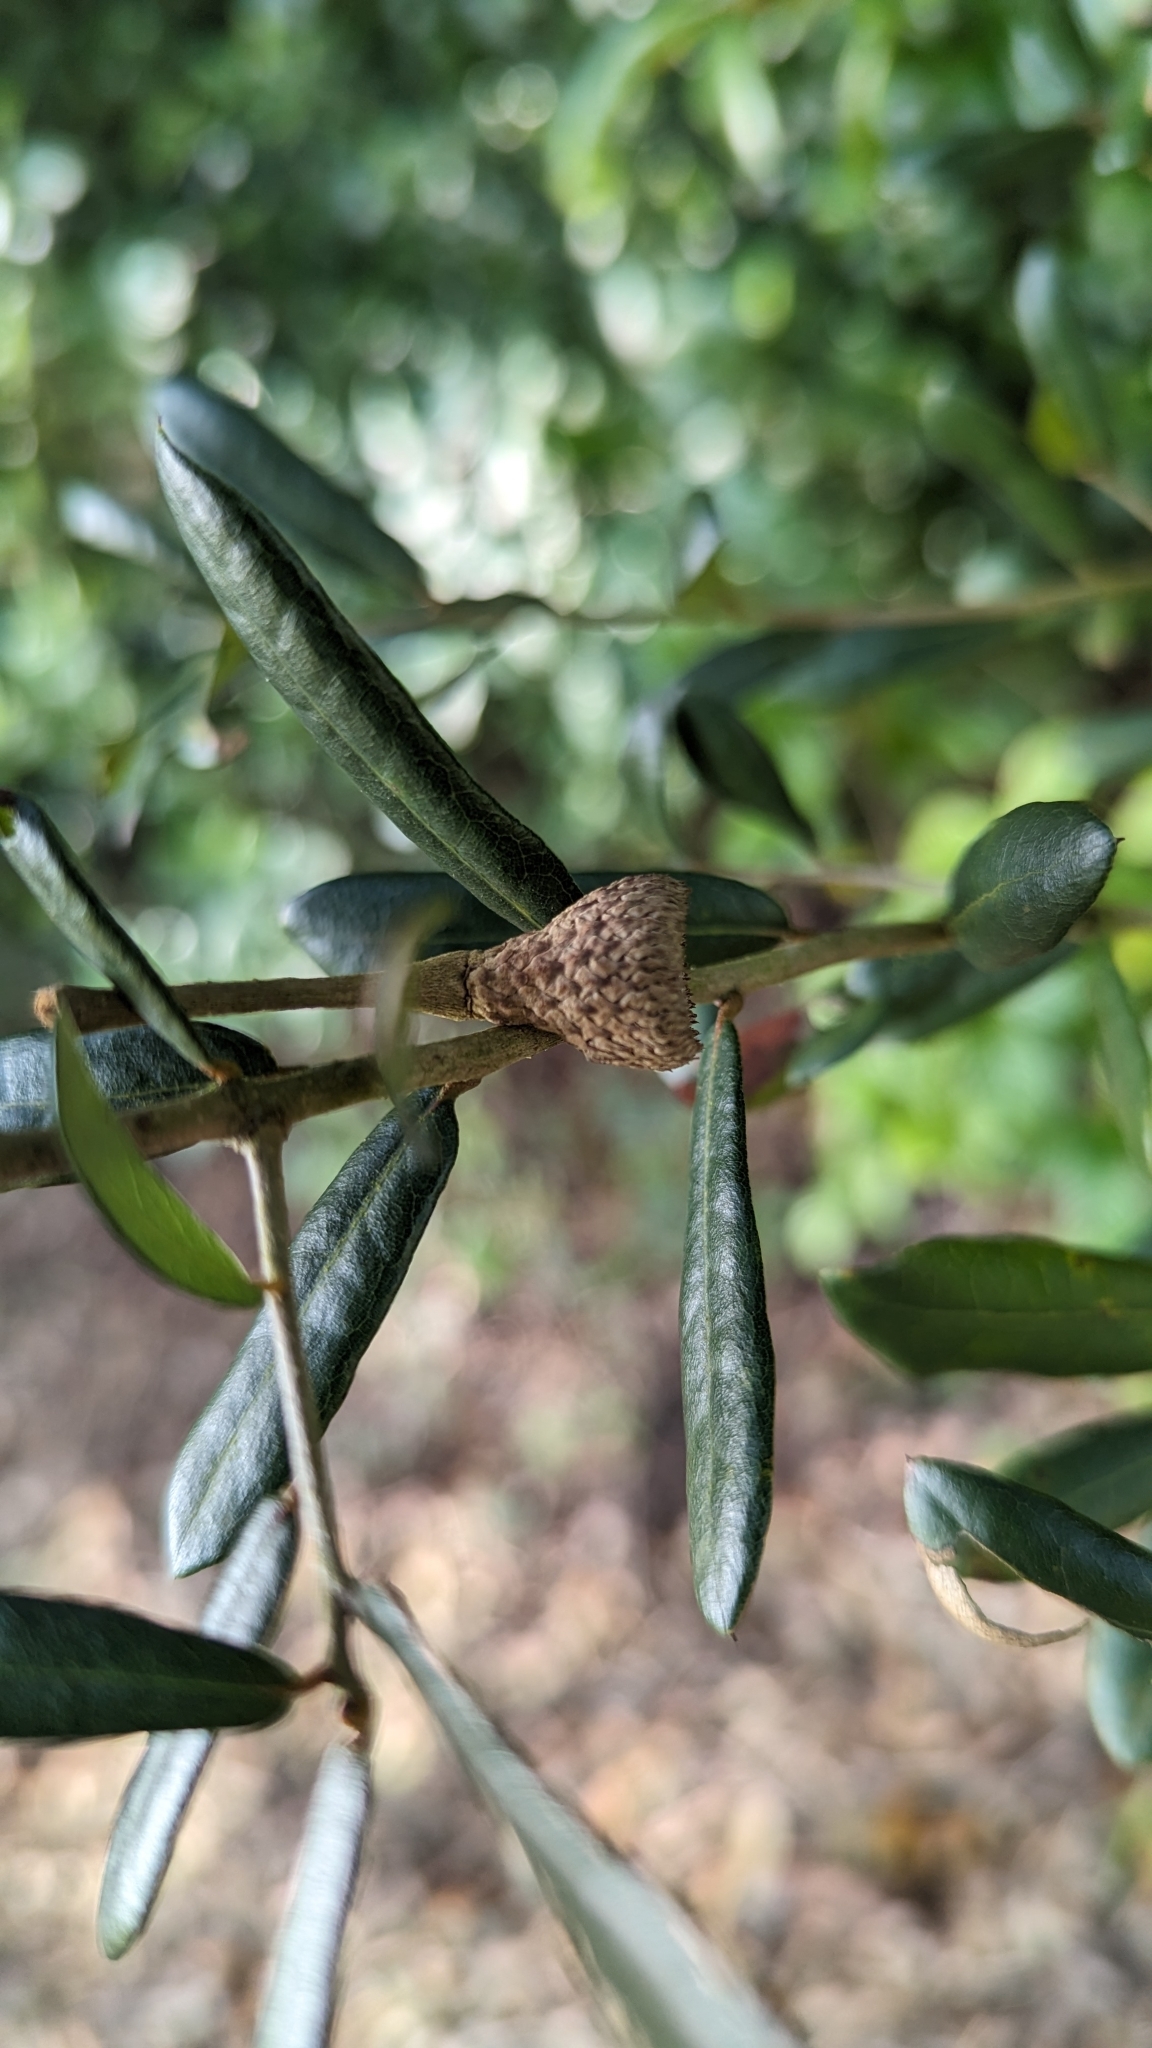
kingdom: Plantae
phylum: Tracheophyta
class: Magnoliopsida
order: Fagales
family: Fagaceae
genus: Quercus
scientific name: Quercus virginiana
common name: Southern live oak
